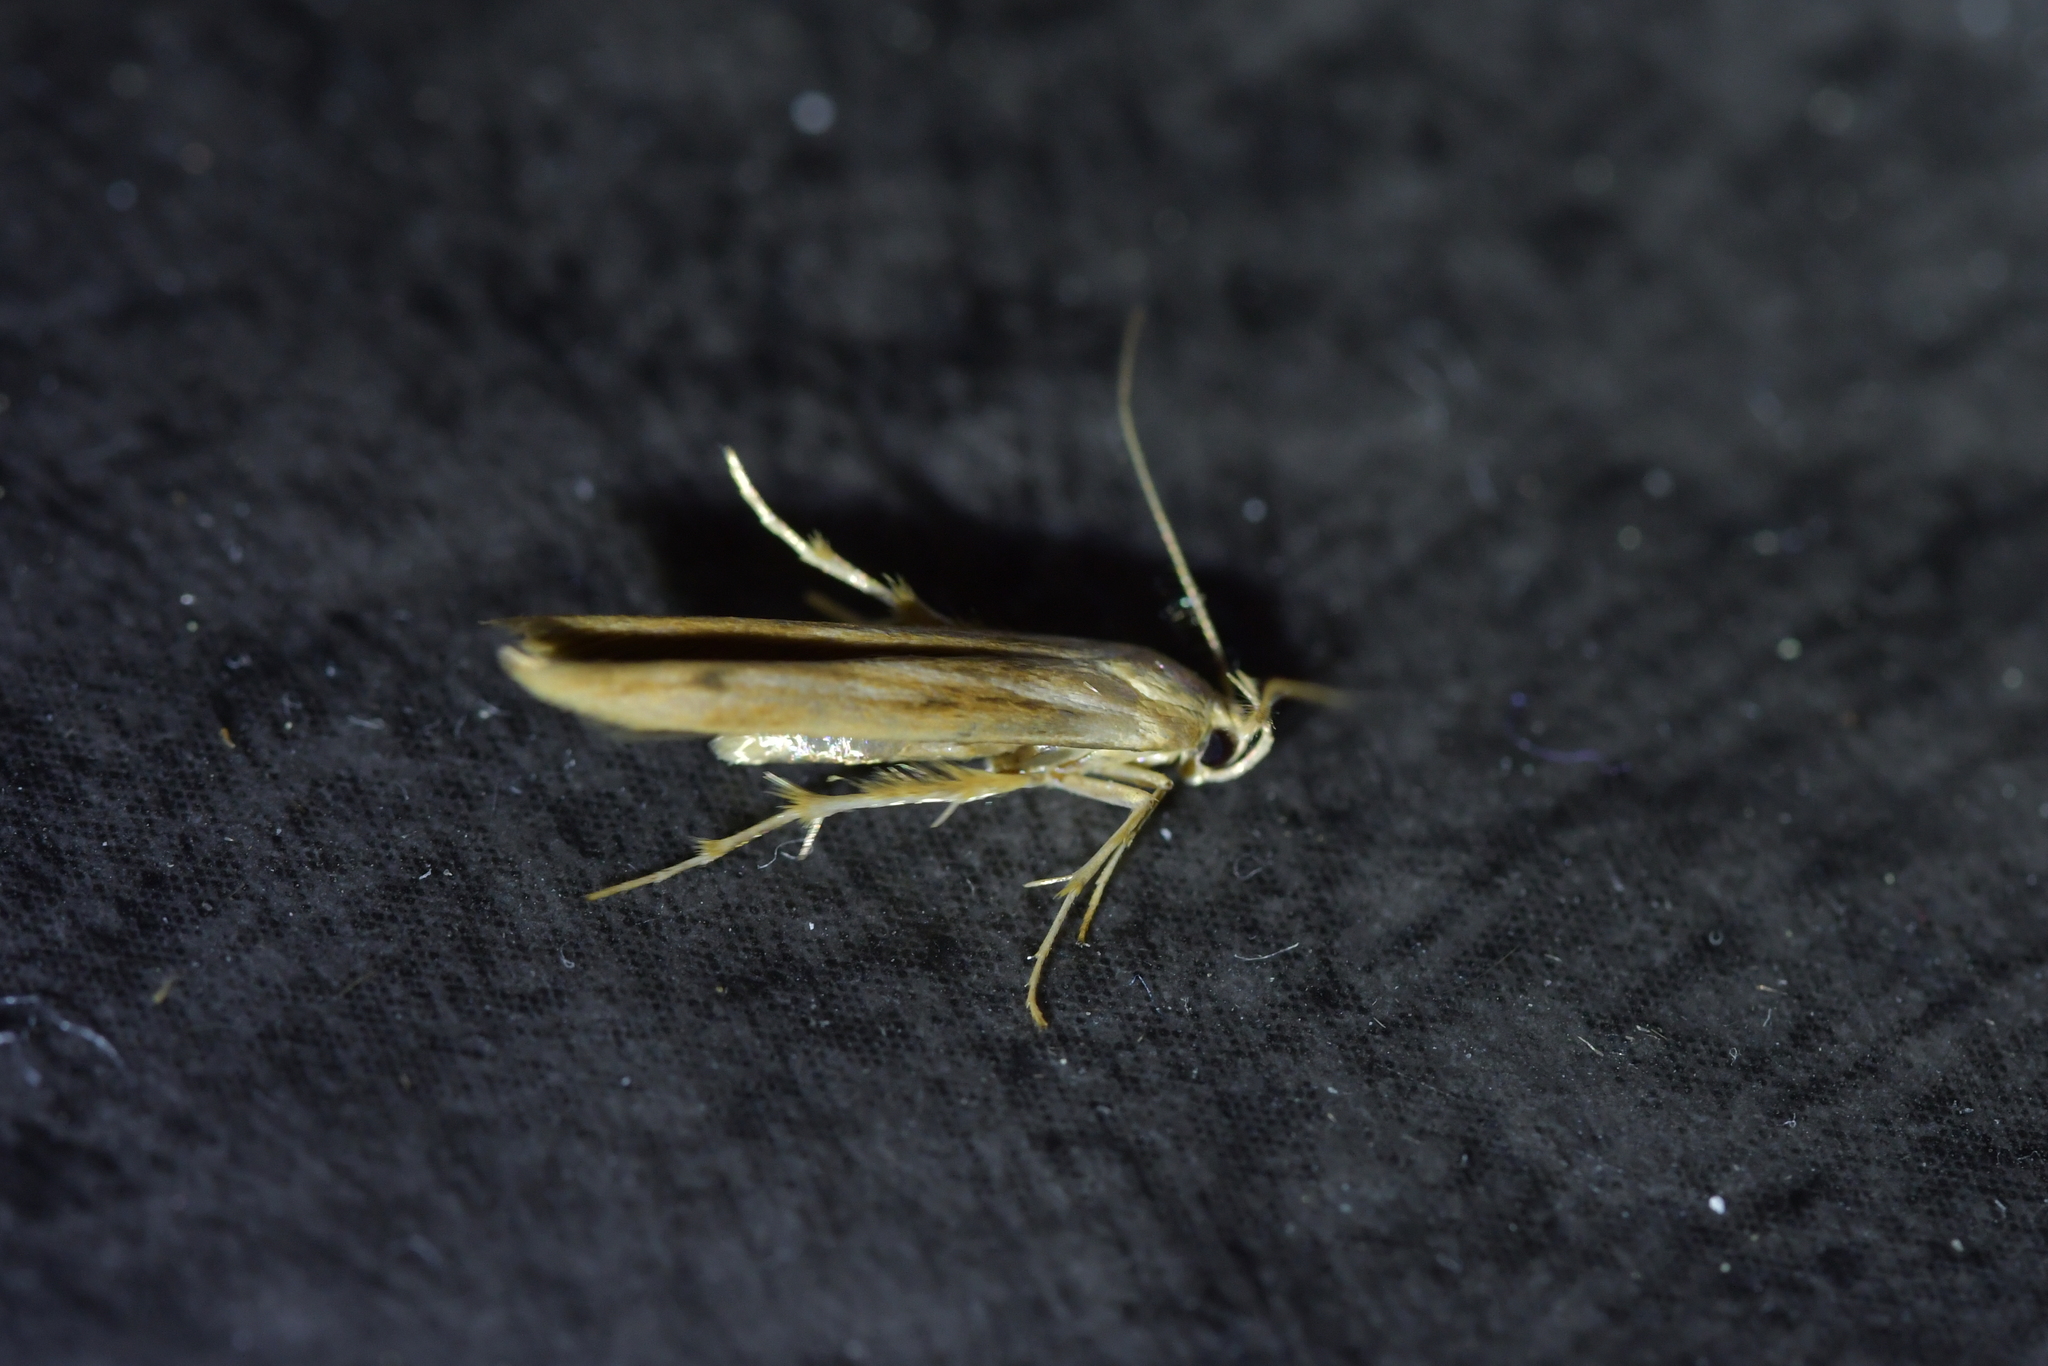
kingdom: Animalia
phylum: Arthropoda
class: Insecta
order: Lepidoptera
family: Stathmopodidae
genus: Stathmopoda
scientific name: Stathmopoda aposema
